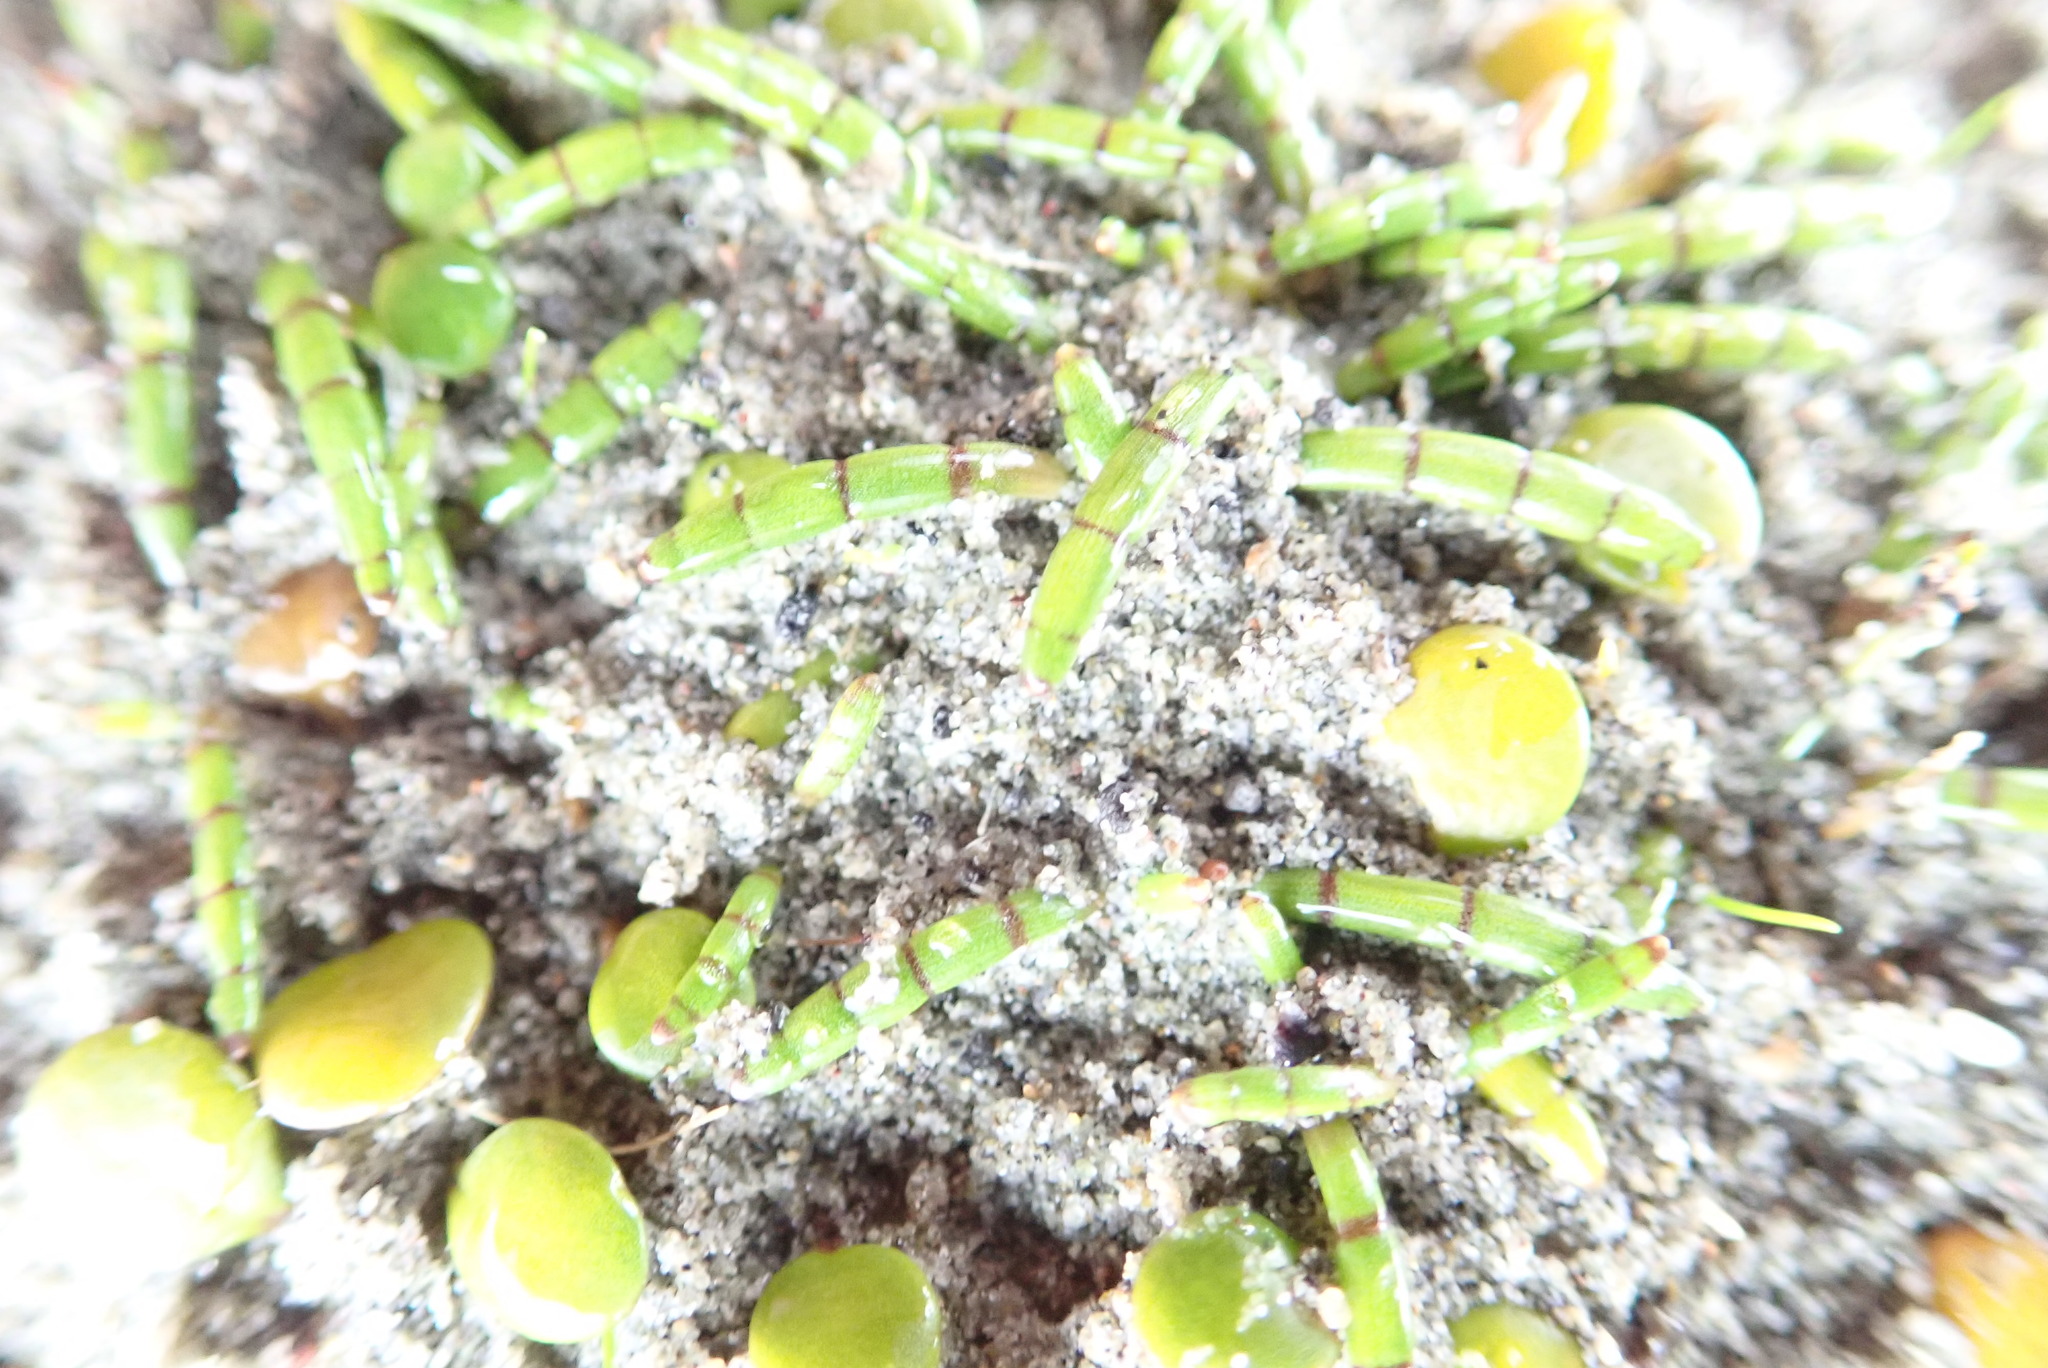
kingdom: Plantae
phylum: Tracheophyta
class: Magnoliopsida
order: Apiales
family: Apiaceae
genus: Lilaeopsis
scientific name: Lilaeopsis novae-zelandiae
